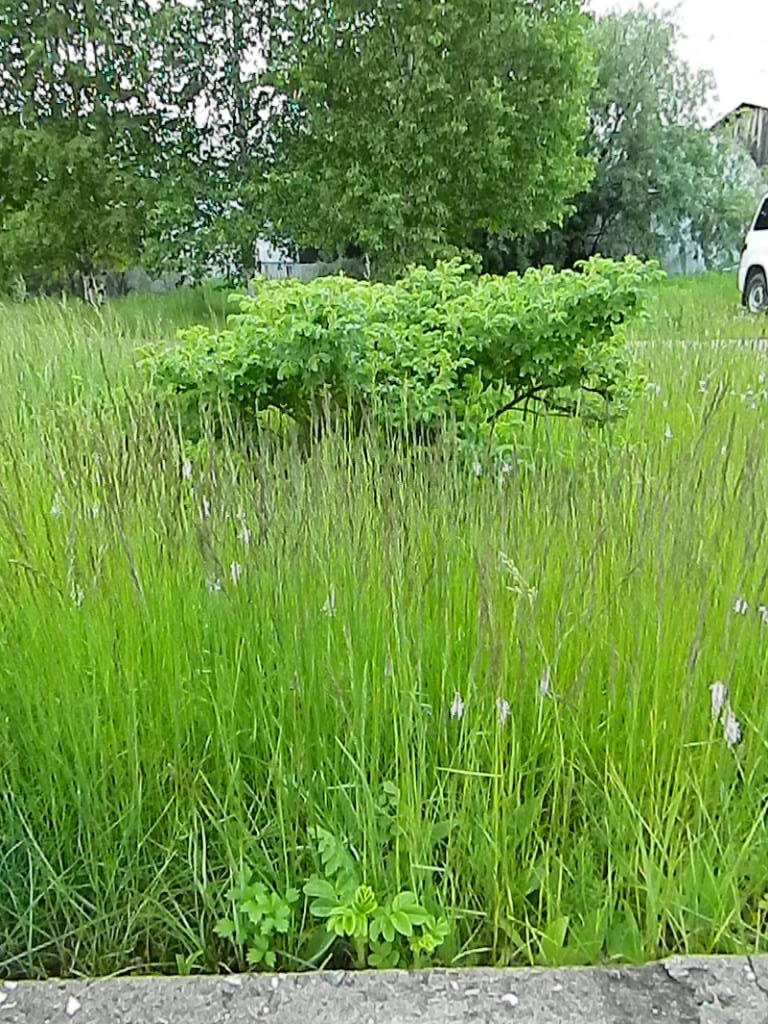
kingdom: Plantae
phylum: Tracheophyta
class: Magnoliopsida
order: Rosales
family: Rosaceae
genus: Rosa
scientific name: Rosa rugosa
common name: Japanese rose
